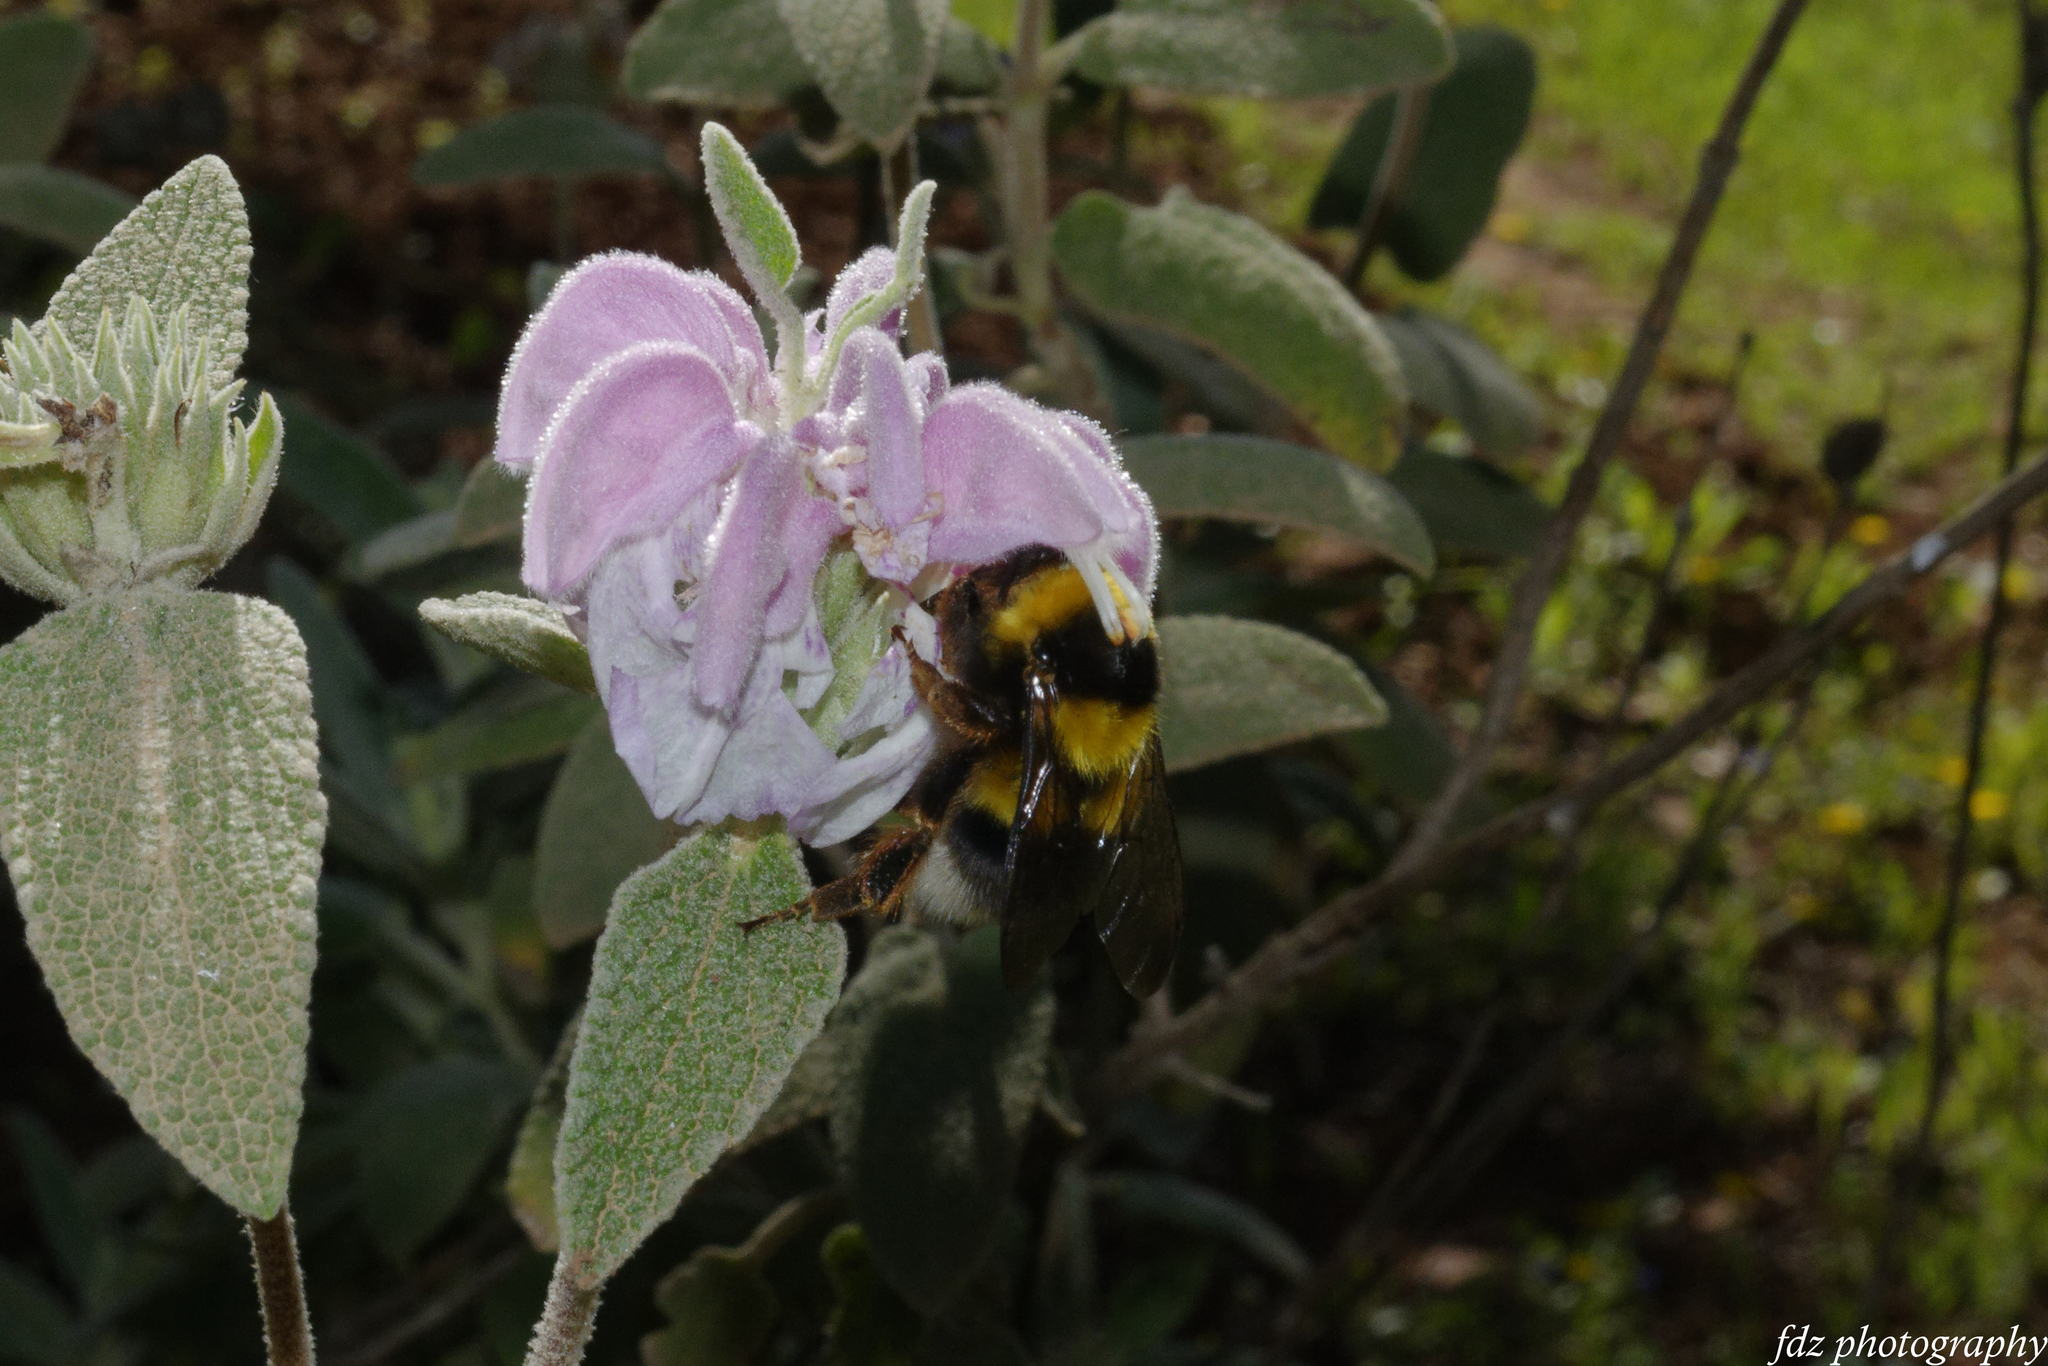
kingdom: Animalia
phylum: Arthropoda
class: Insecta
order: Hymenoptera
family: Apidae
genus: Bombus
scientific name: Bombus ruderatus
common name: Large garden bumblebee
